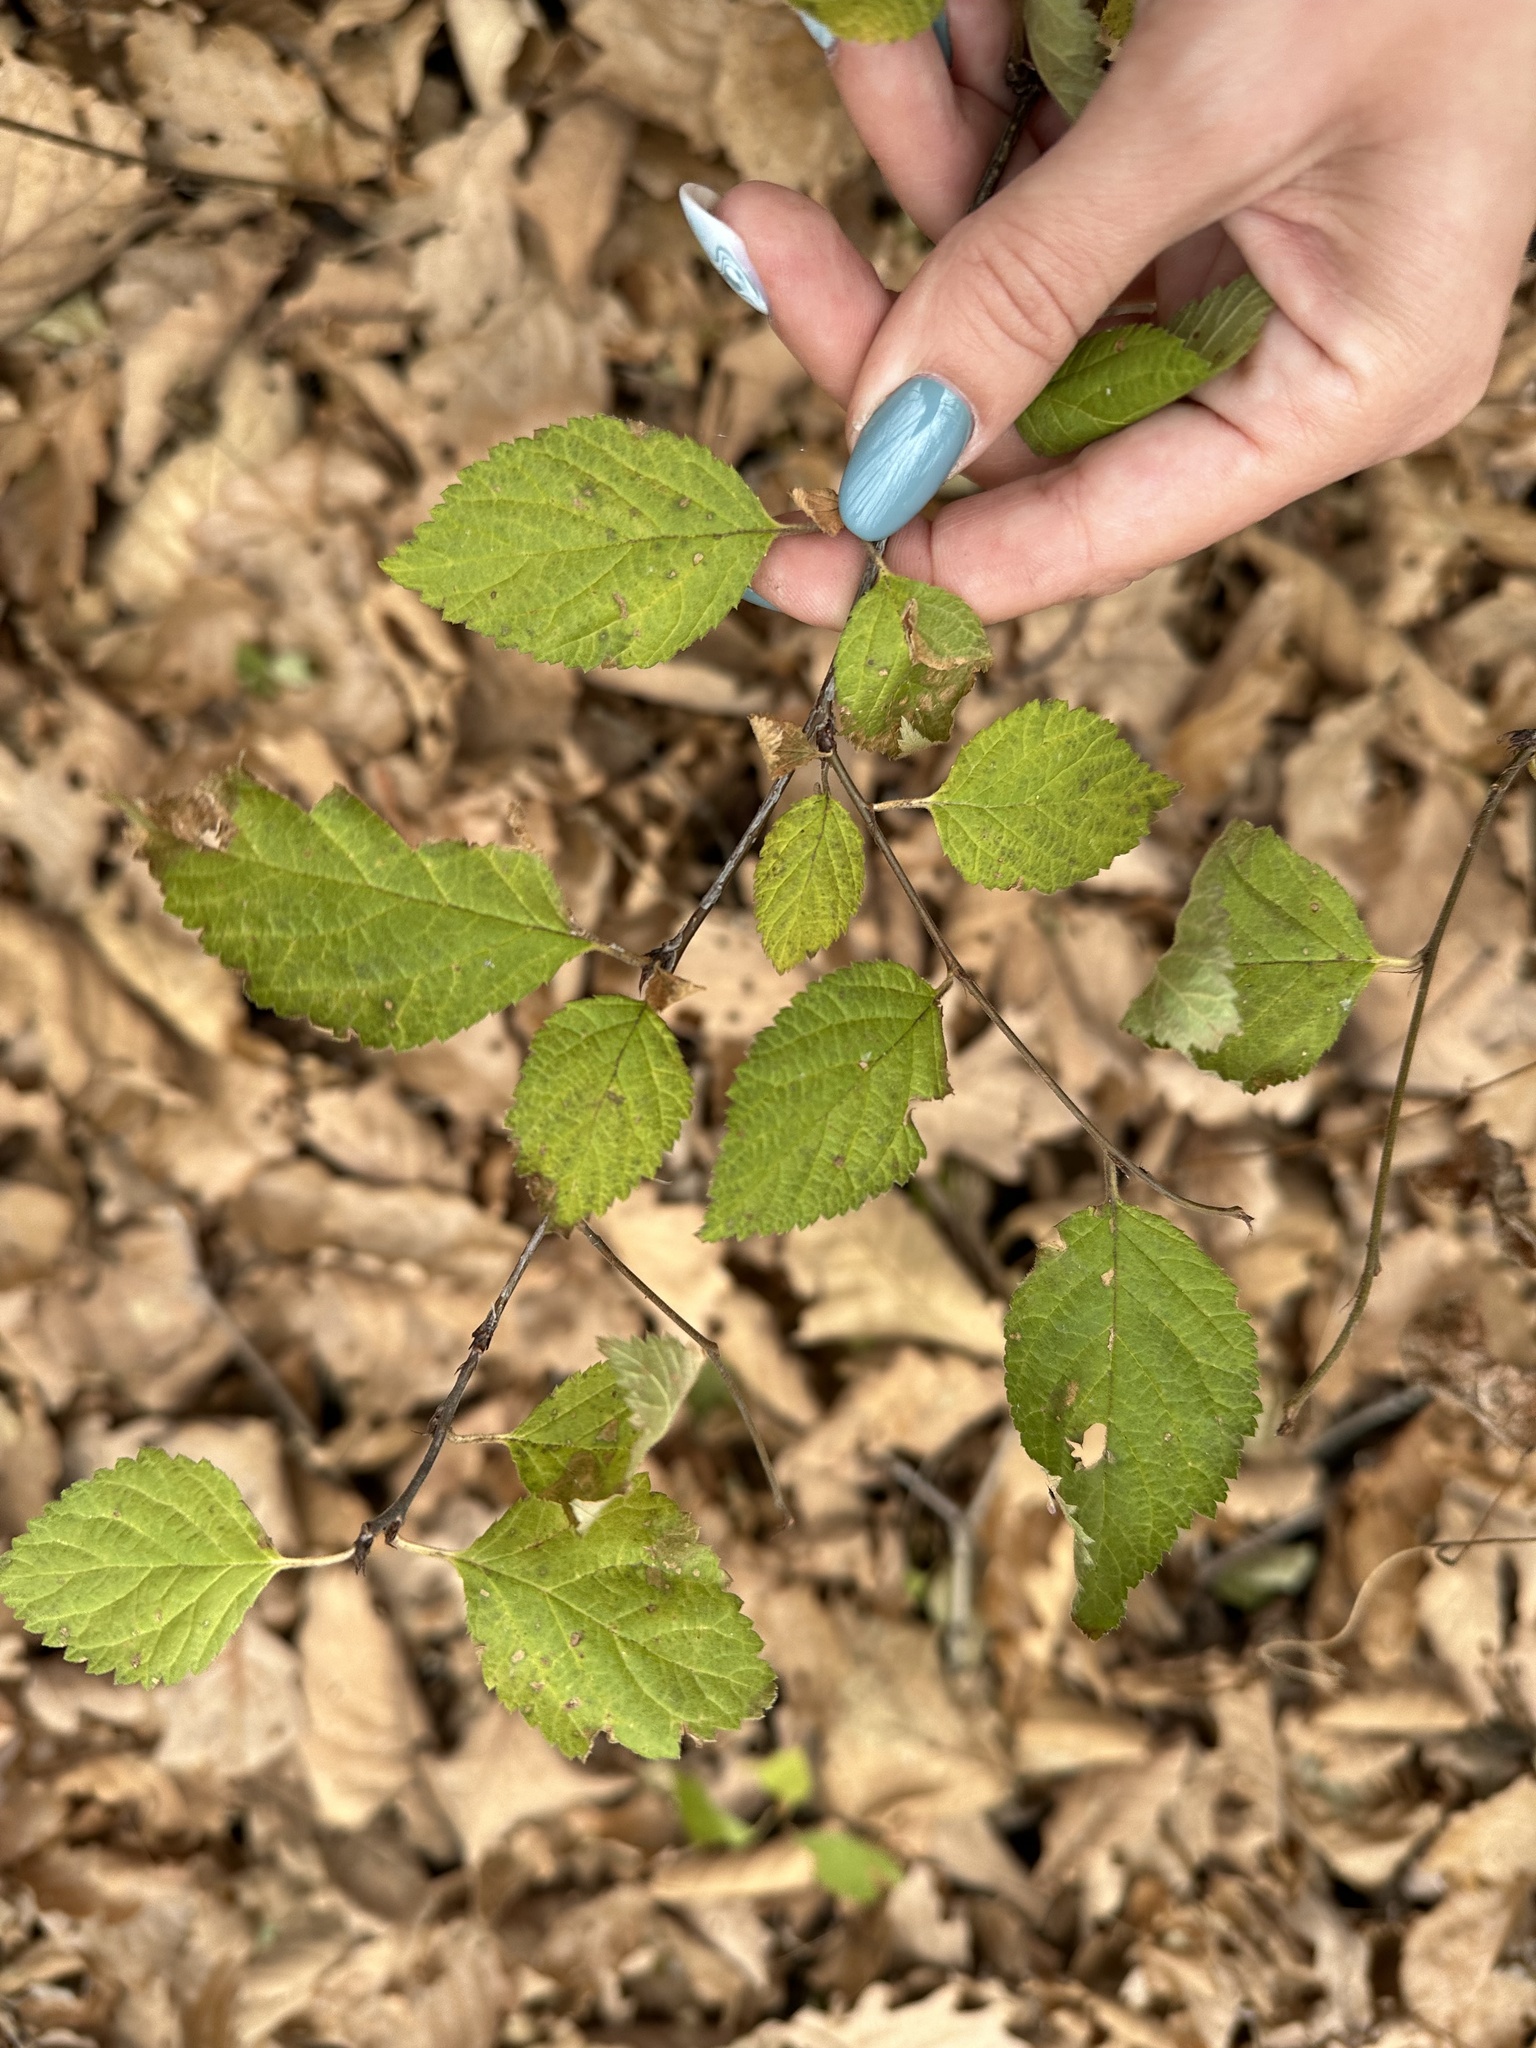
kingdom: Plantae
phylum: Tracheophyta
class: Magnoliopsida
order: Rosales
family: Rosaceae
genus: Prunus
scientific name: Prunus tomentosa
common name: Nanking cherry
